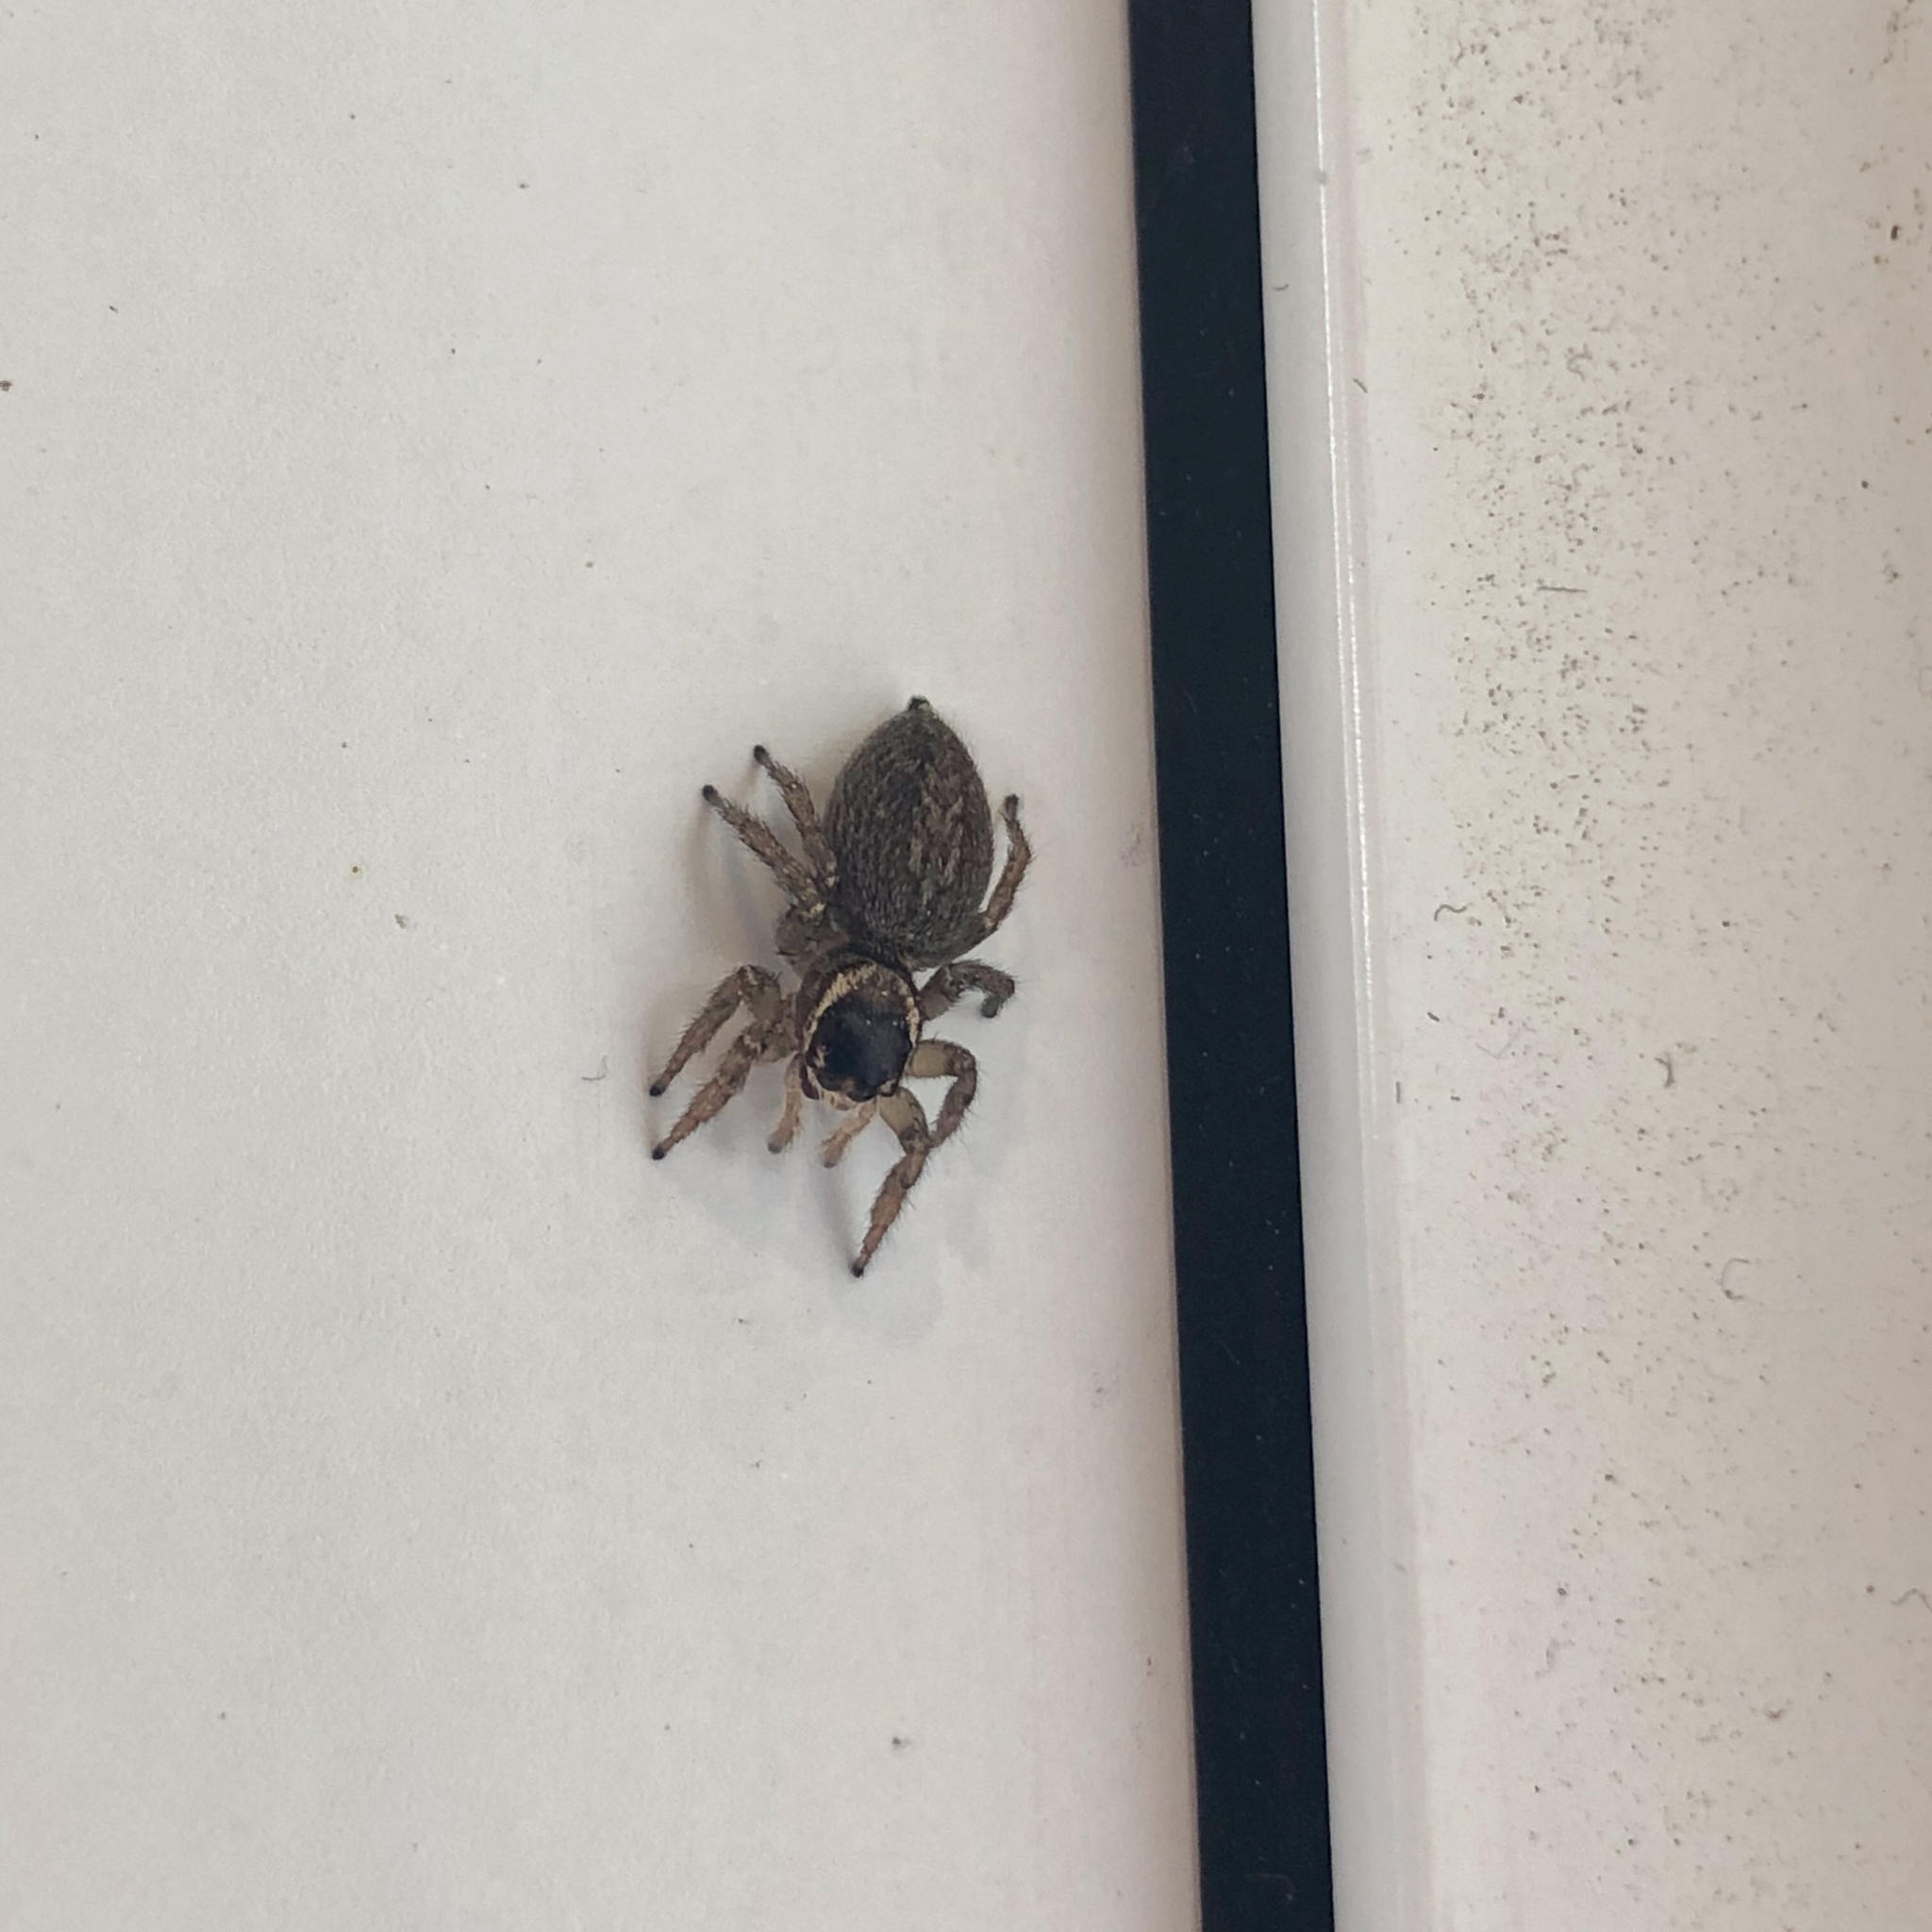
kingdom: Animalia
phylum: Arthropoda
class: Arachnida
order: Araneae
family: Salticidae
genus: Maratus
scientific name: Maratus griseus
